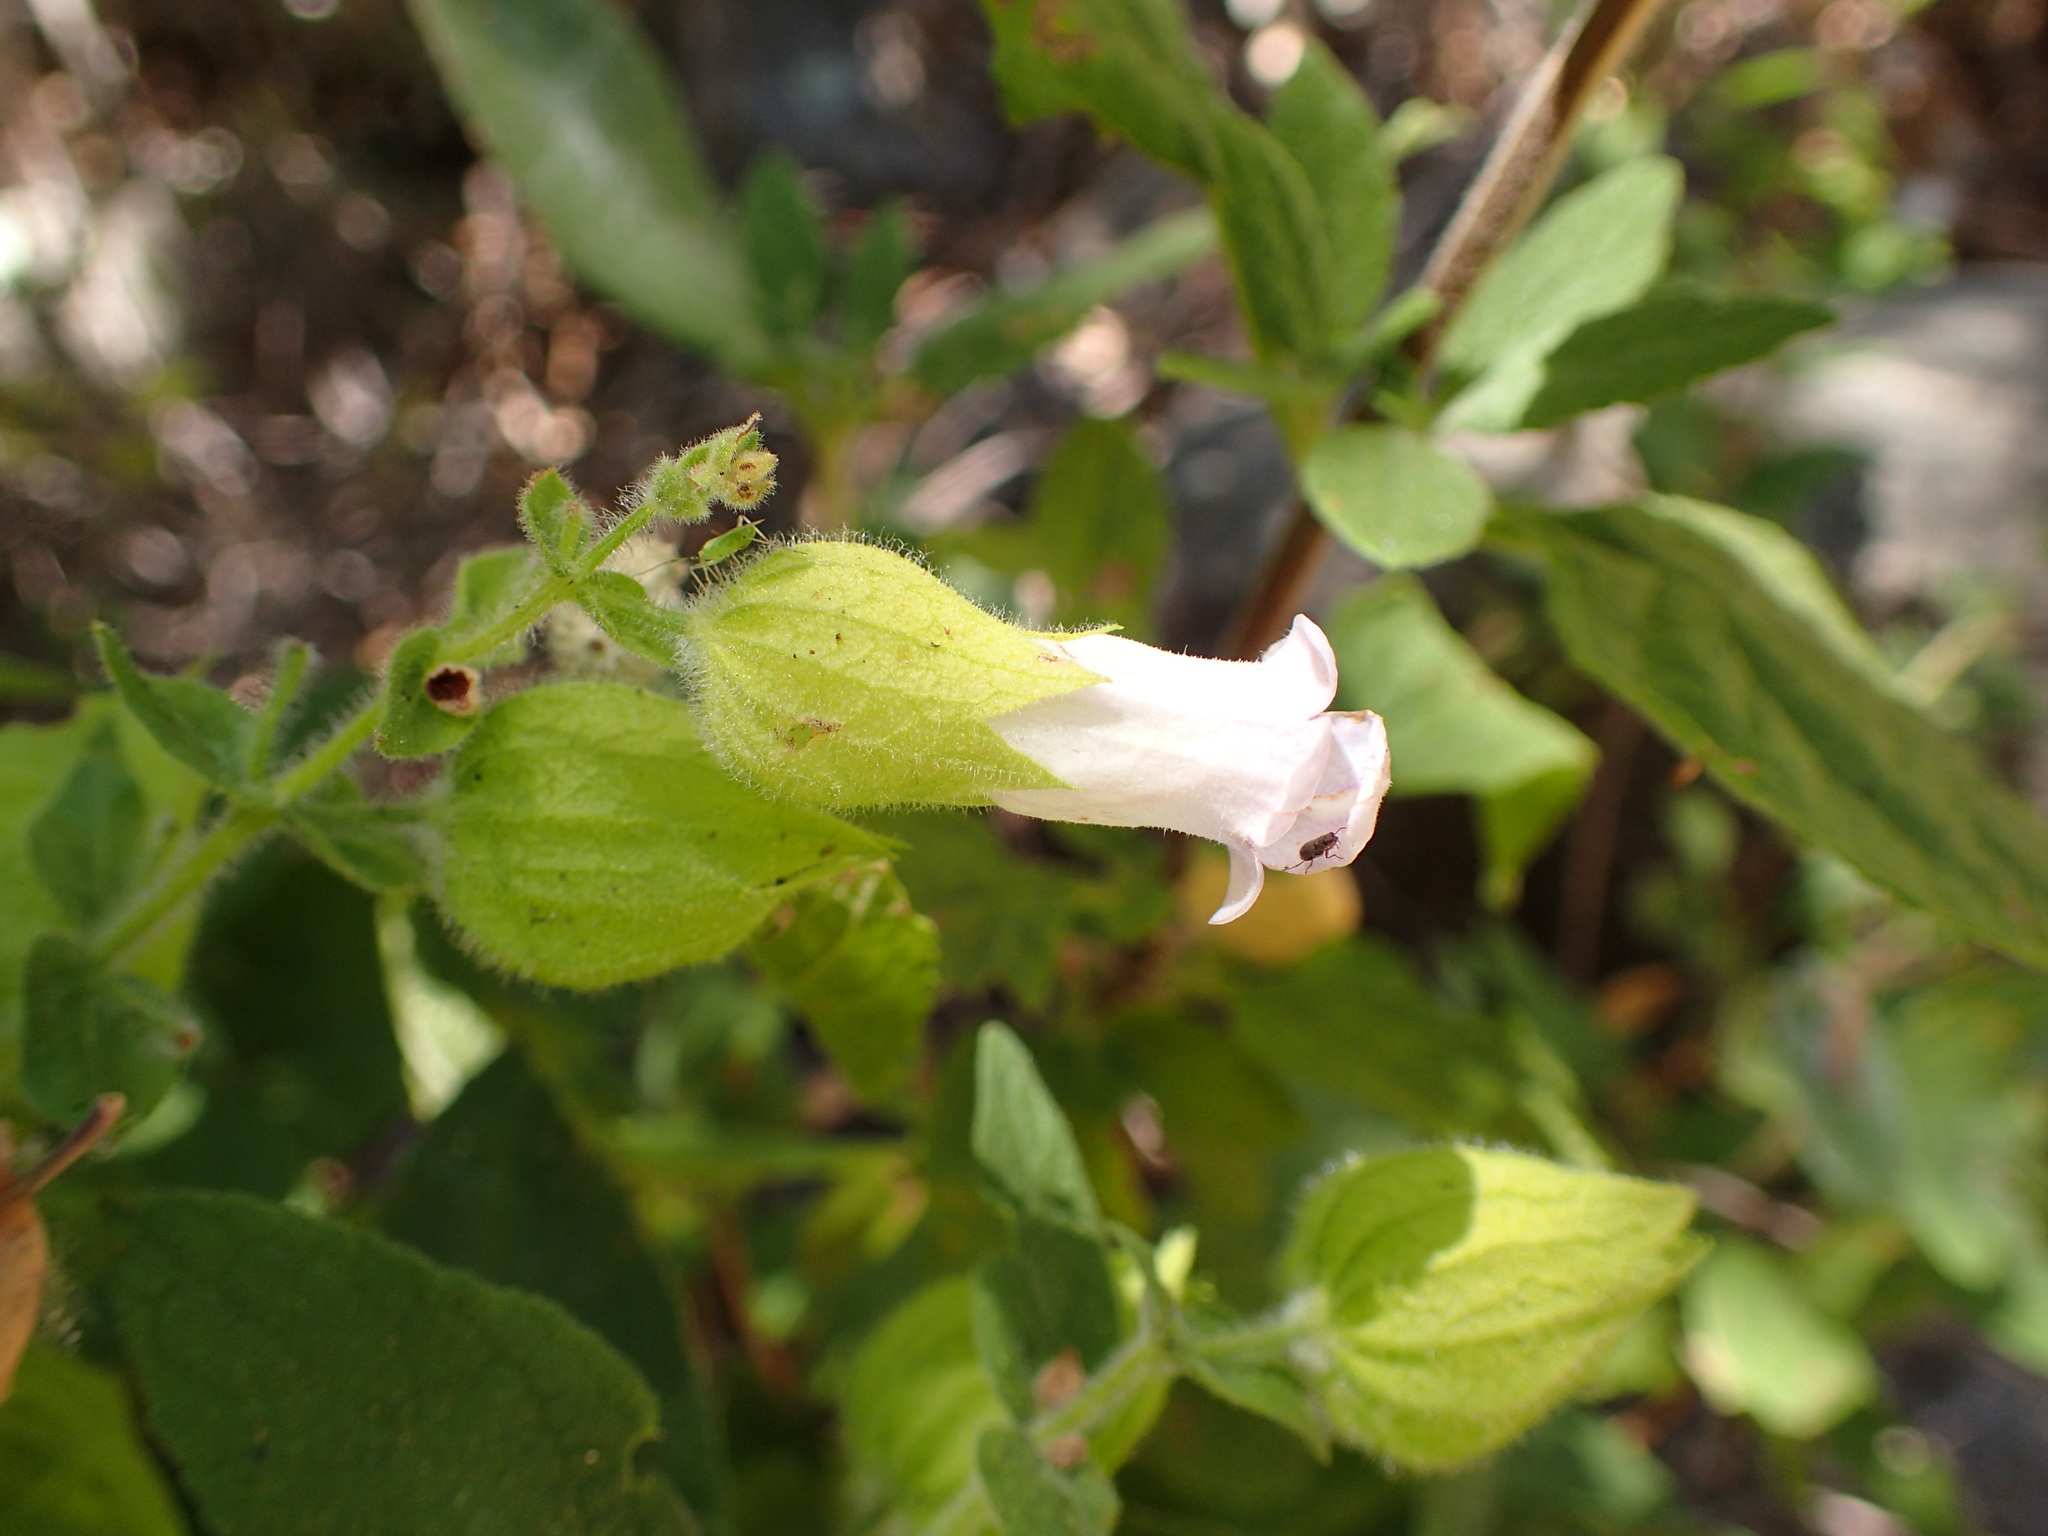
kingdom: Plantae
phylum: Tracheophyta
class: Magnoliopsida
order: Lamiales
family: Lamiaceae
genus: Lepechinia
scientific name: Lepechinia calycina
